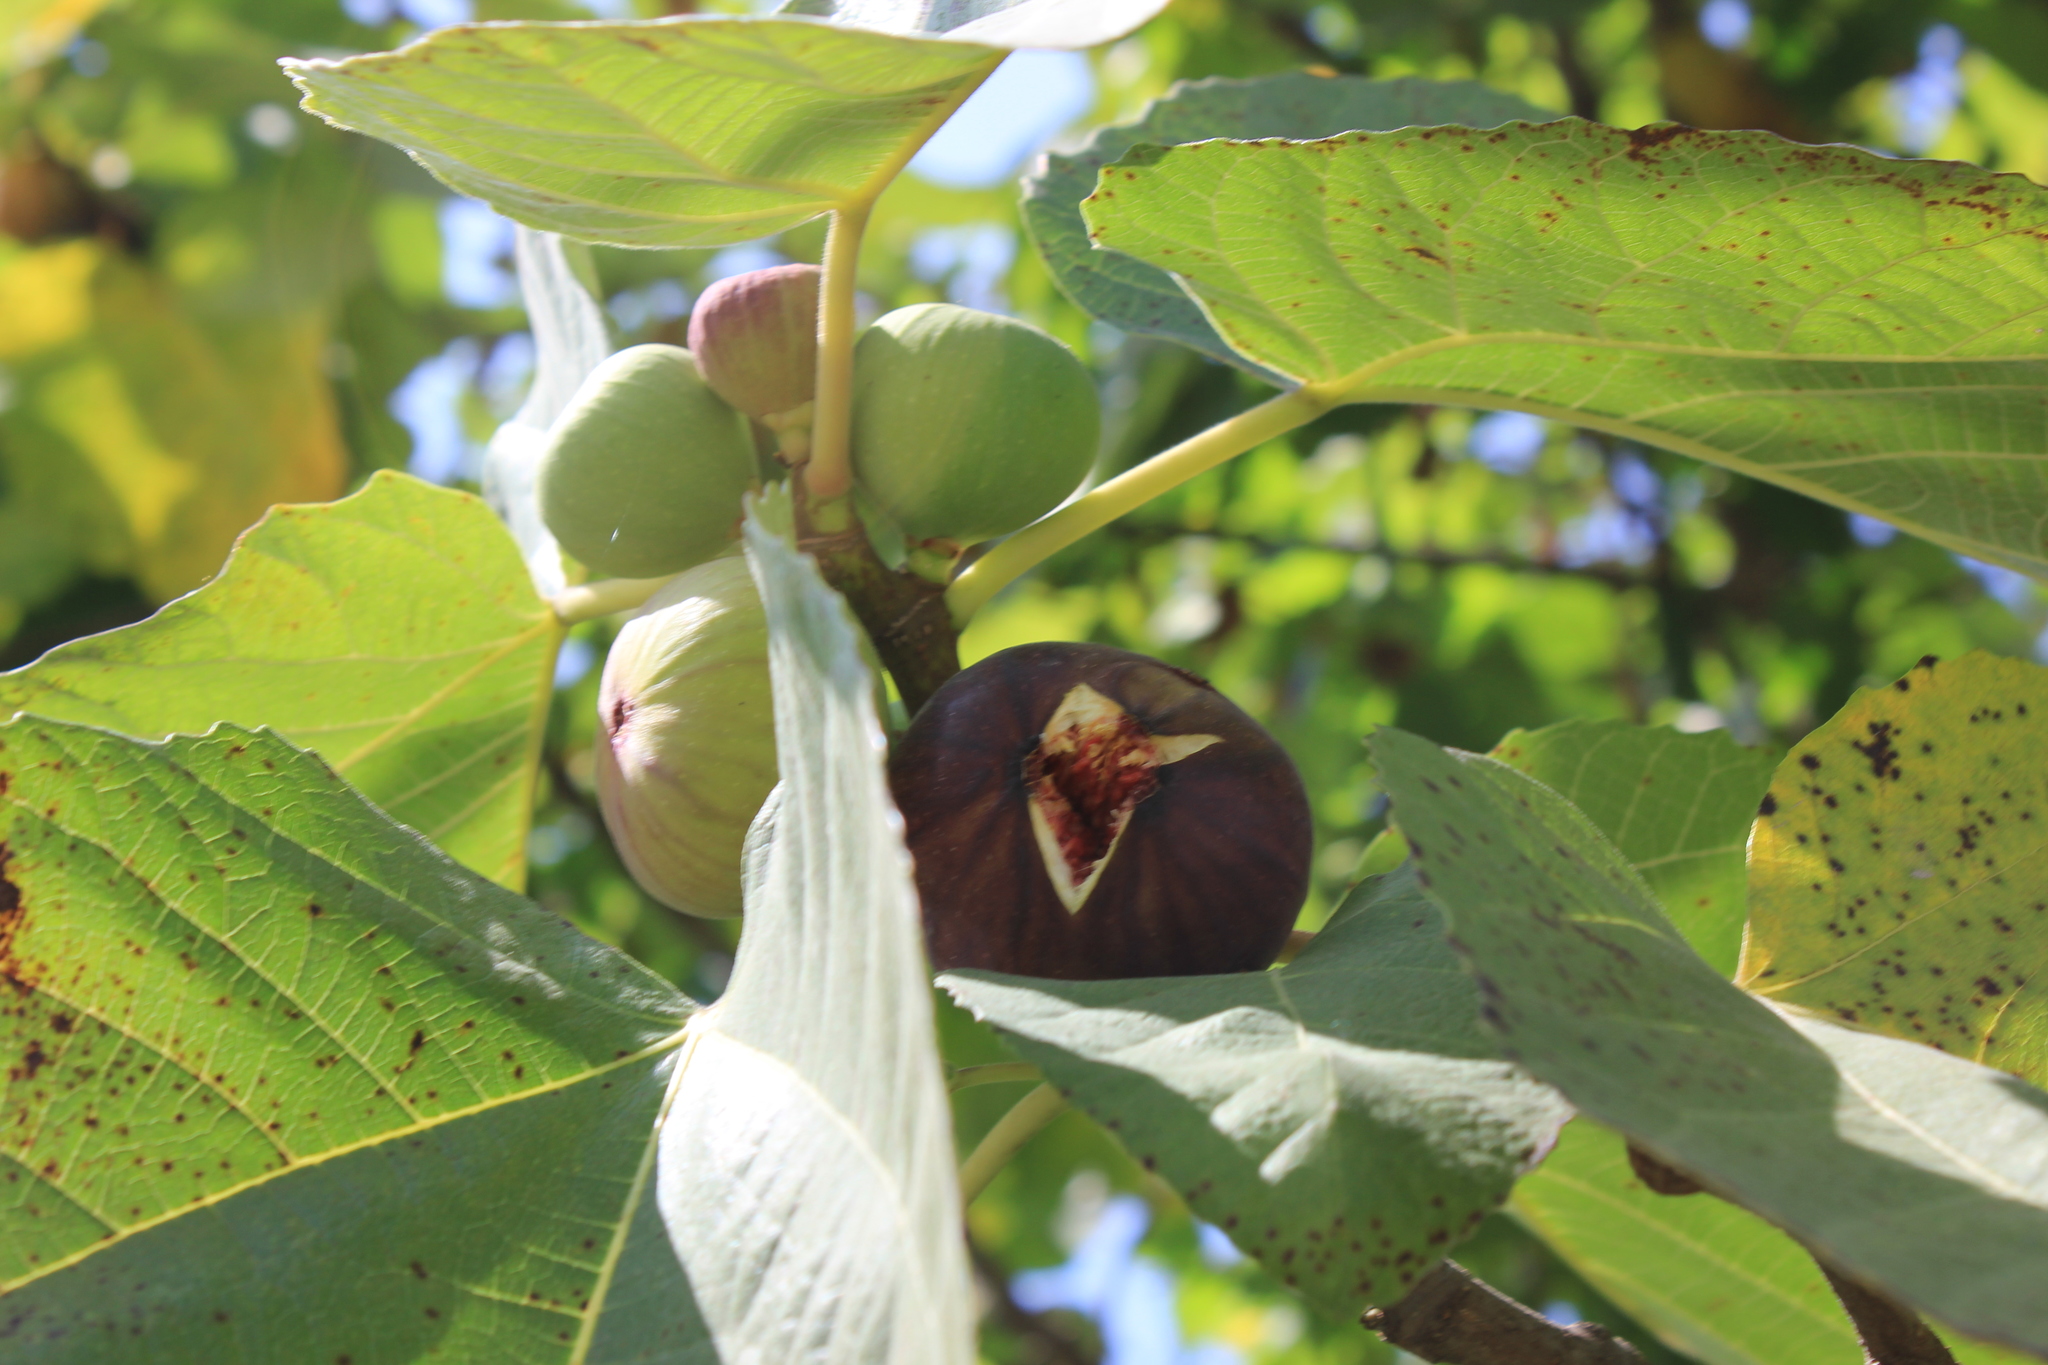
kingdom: Plantae
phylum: Tracheophyta
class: Magnoliopsida
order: Rosales
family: Moraceae
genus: Ficus
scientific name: Ficus carica
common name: Fig
